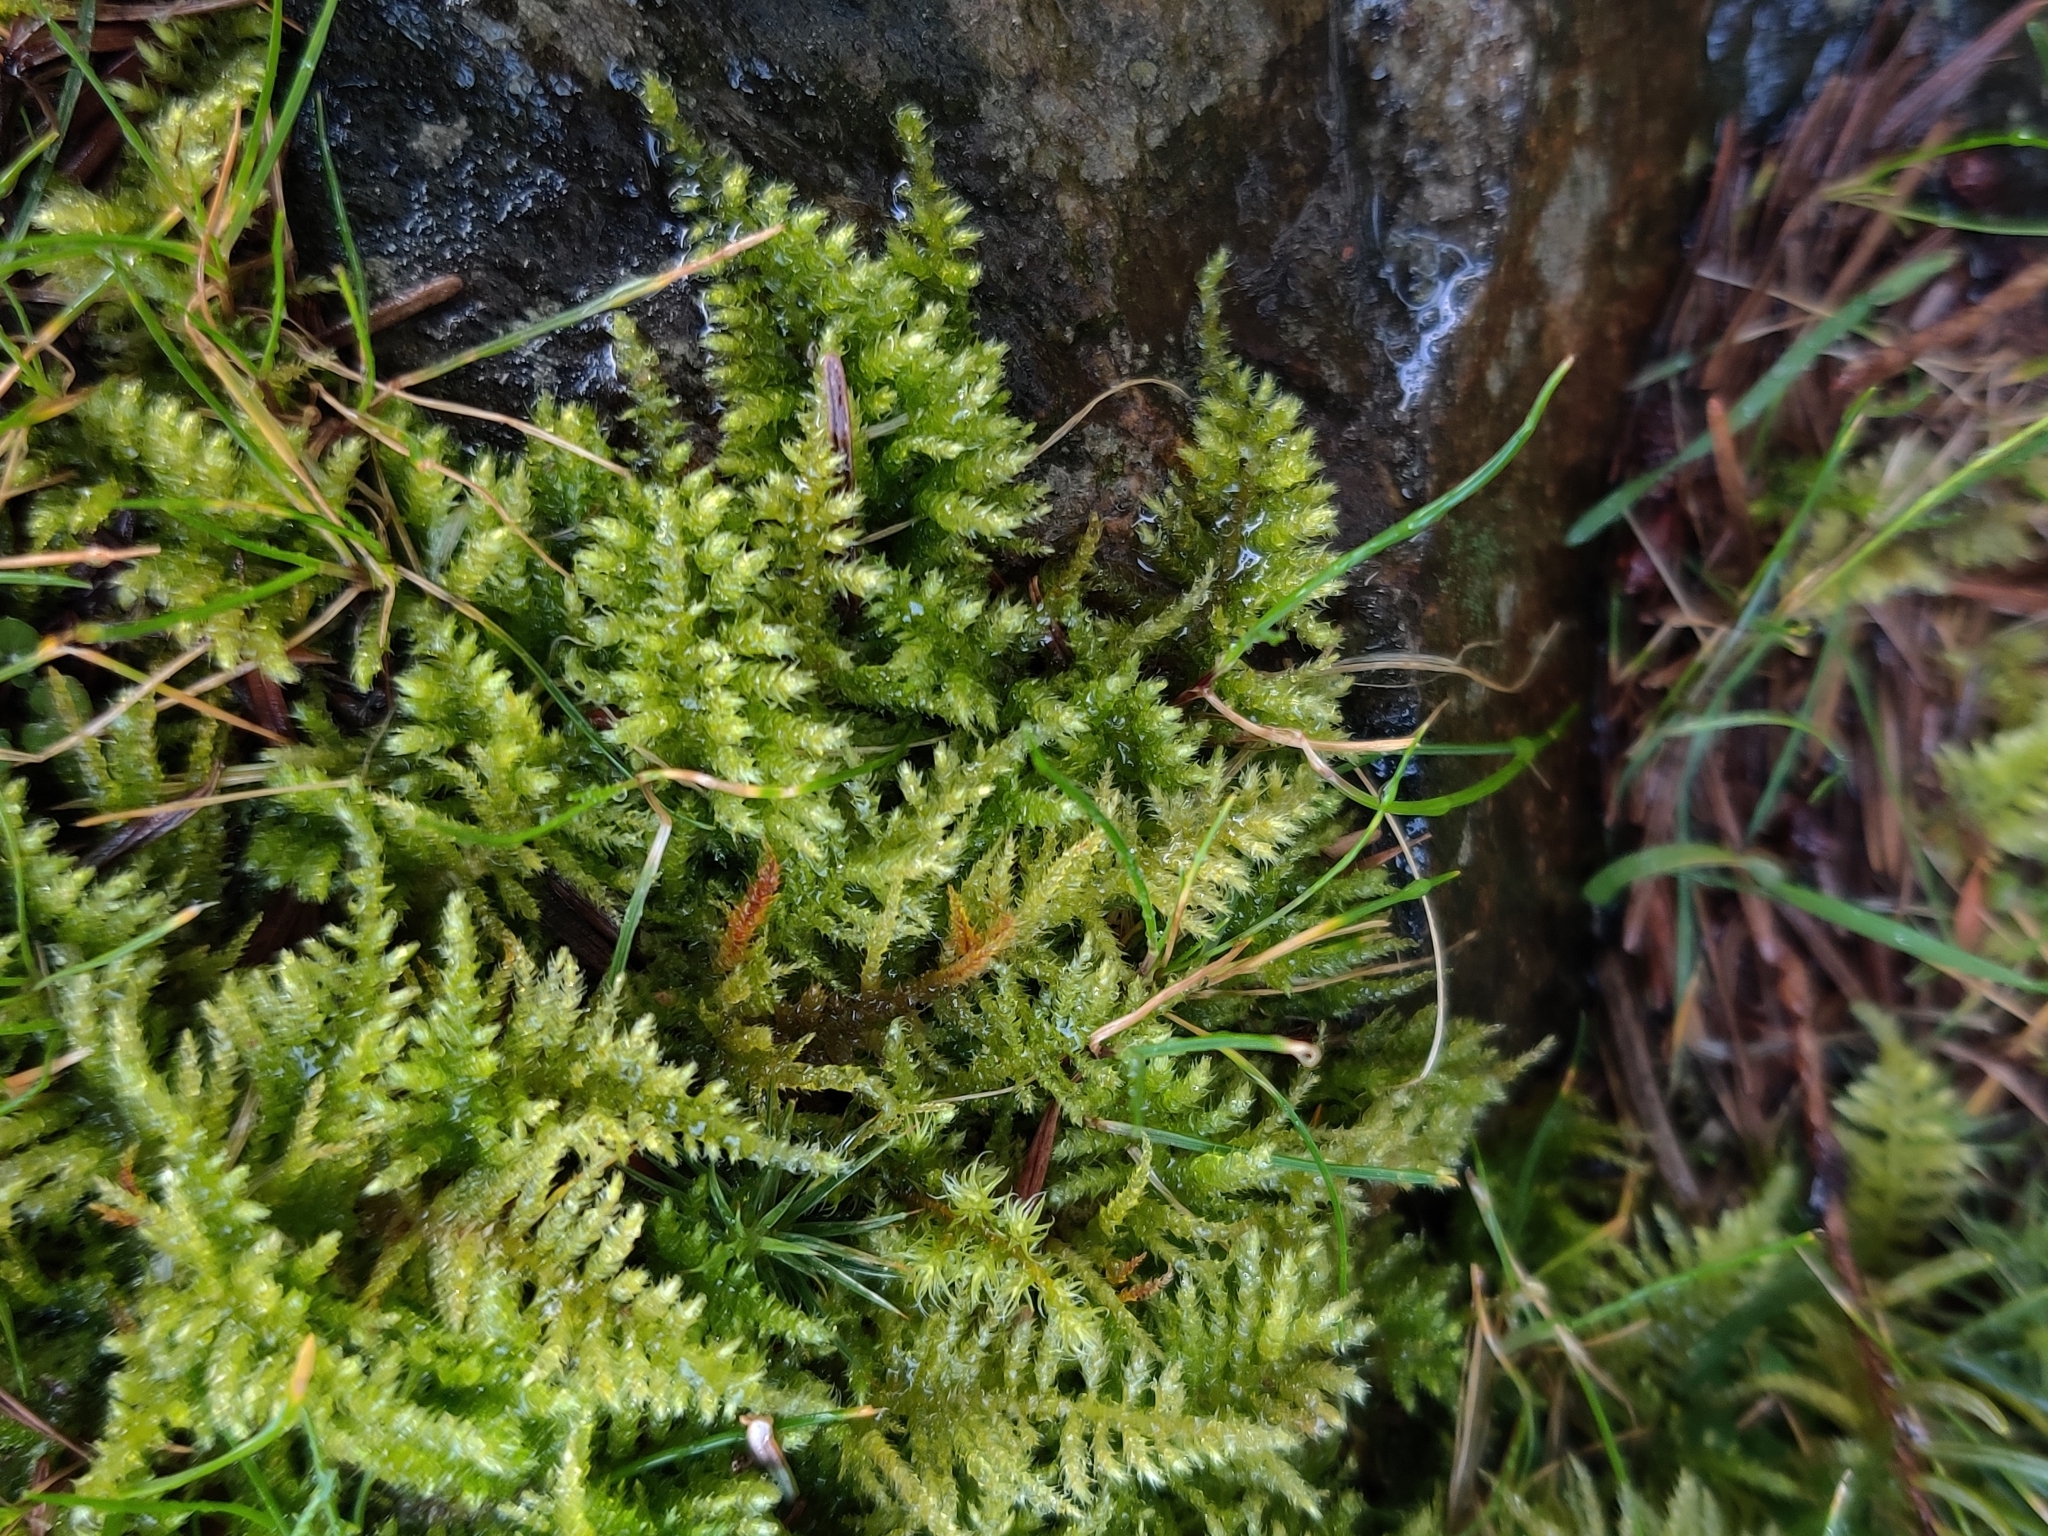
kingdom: Plantae
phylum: Bryophyta
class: Bryopsida
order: Hypnales
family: Brachytheciaceae
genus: Kindbergia
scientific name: Kindbergia oregana
